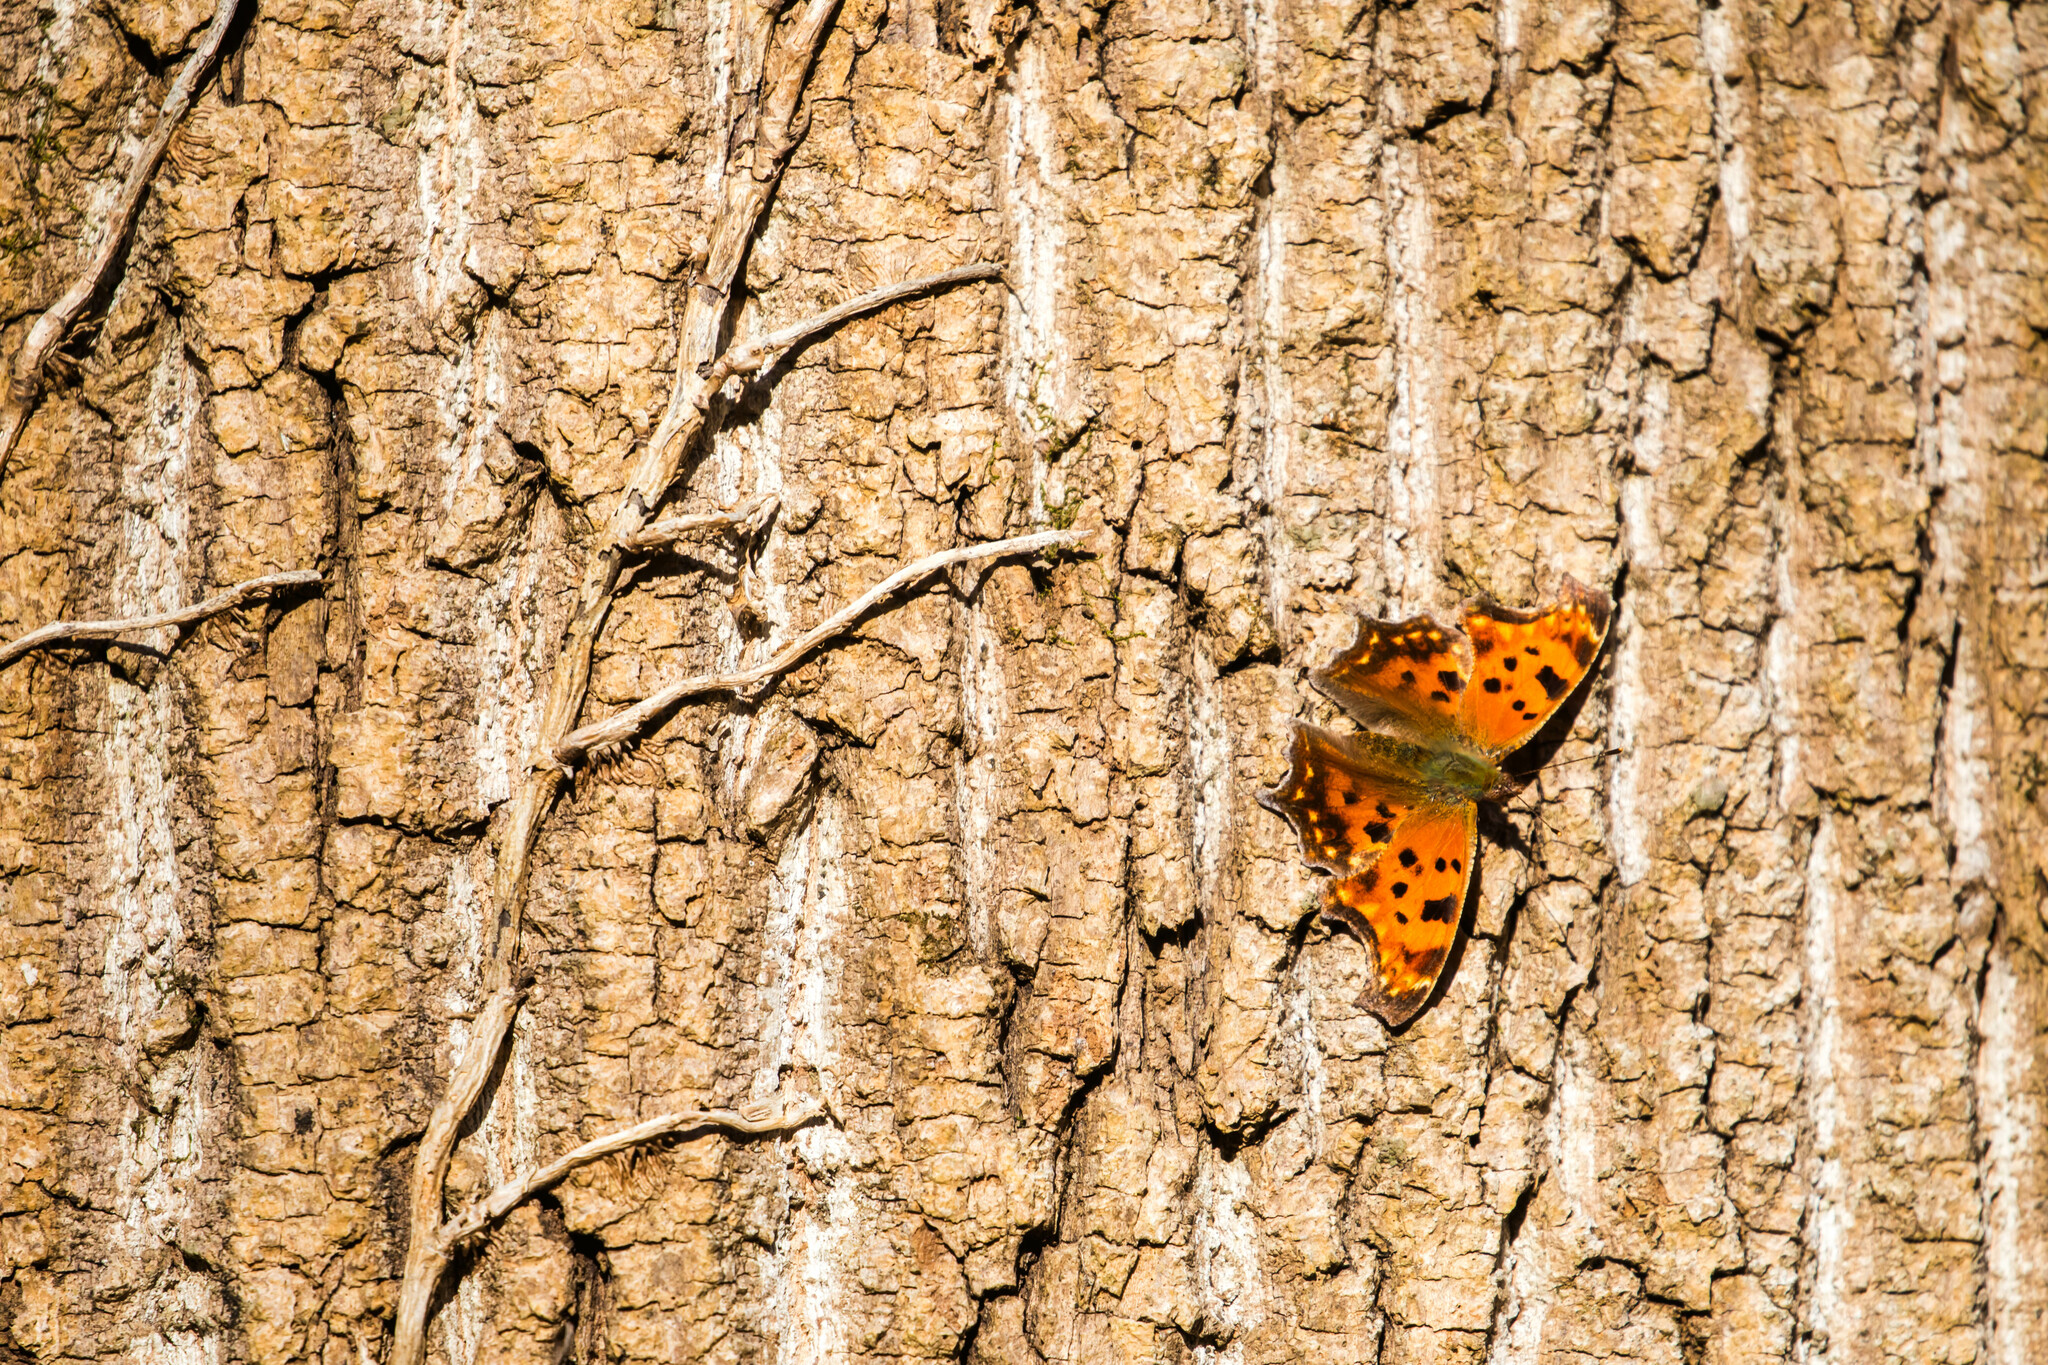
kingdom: Animalia
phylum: Arthropoda
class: Insecta
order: Lepidoptera
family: Nymphalidae
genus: Polygonia
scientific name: Polygonia comma
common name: Eastern comma
